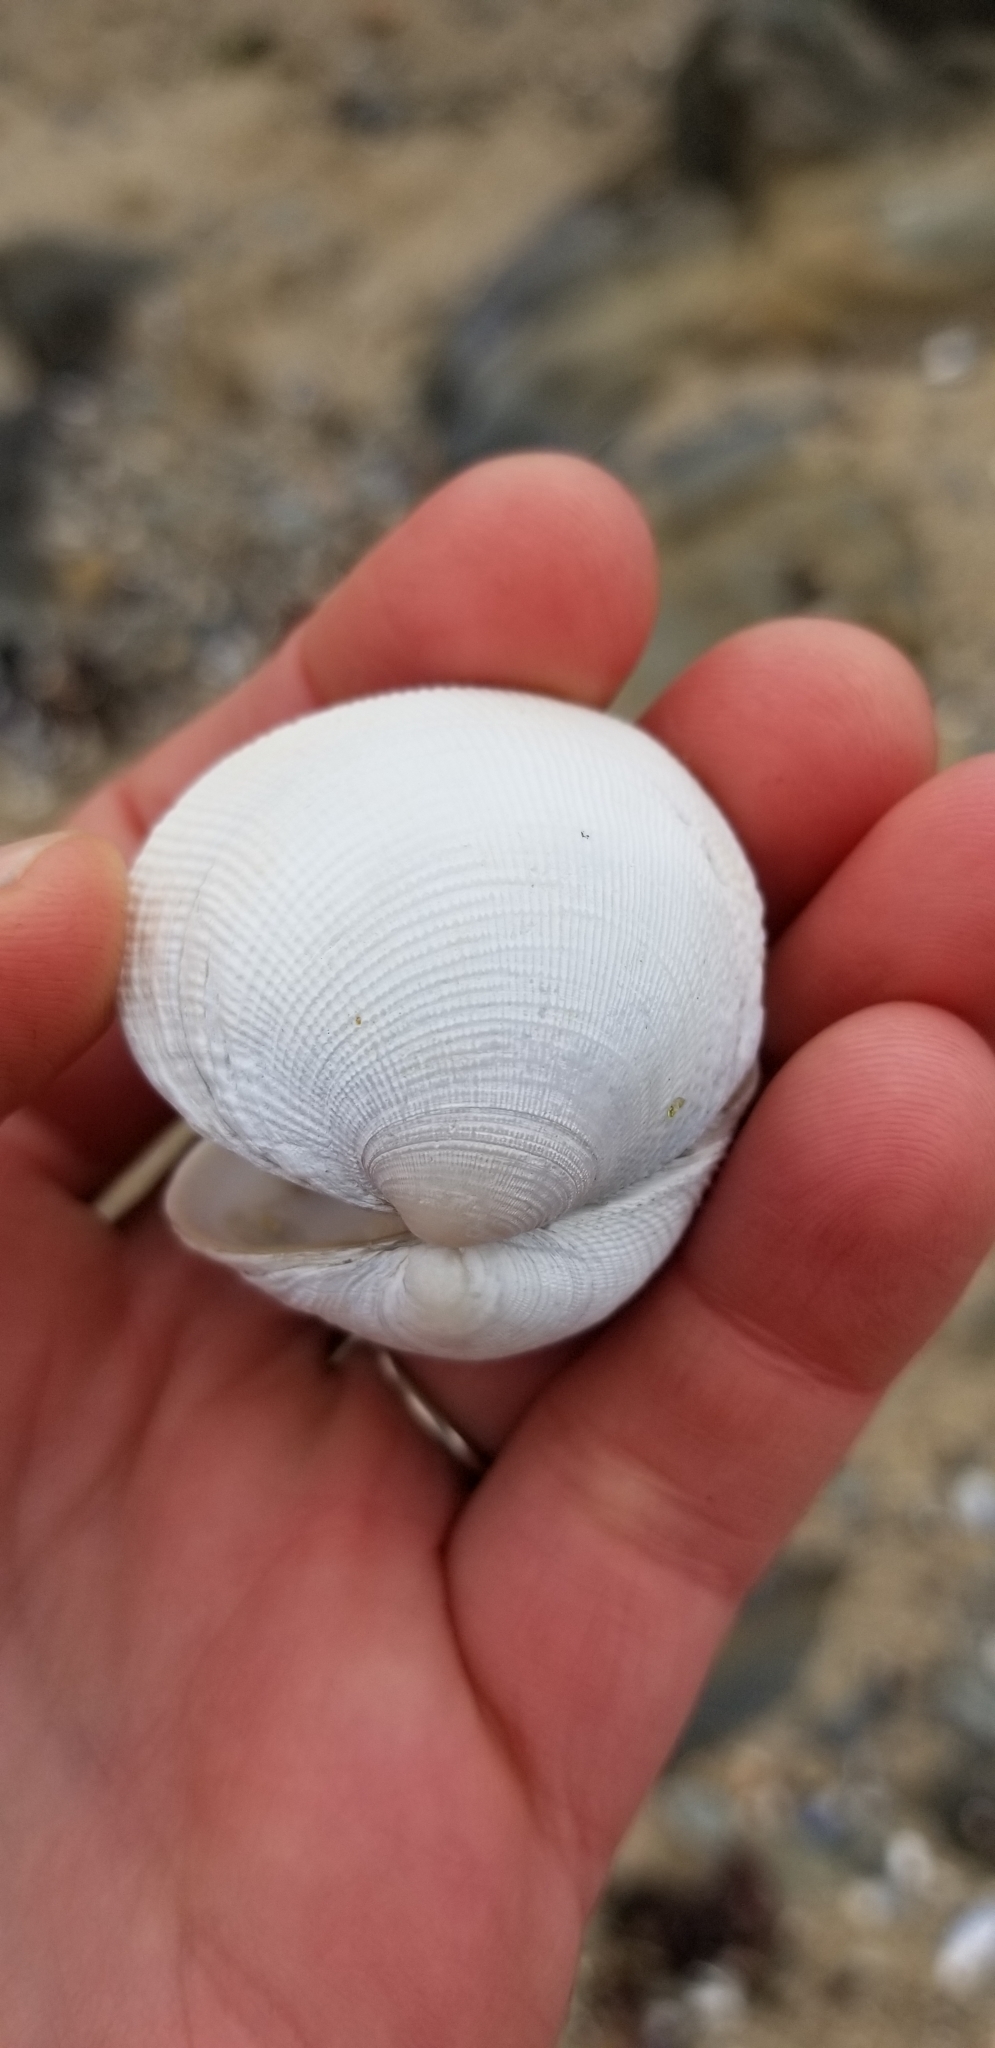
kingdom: Animalia
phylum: Mollusca
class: Bivalvia
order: Venerida
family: Veneridae
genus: Leukoma
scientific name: Leukoma staminea
